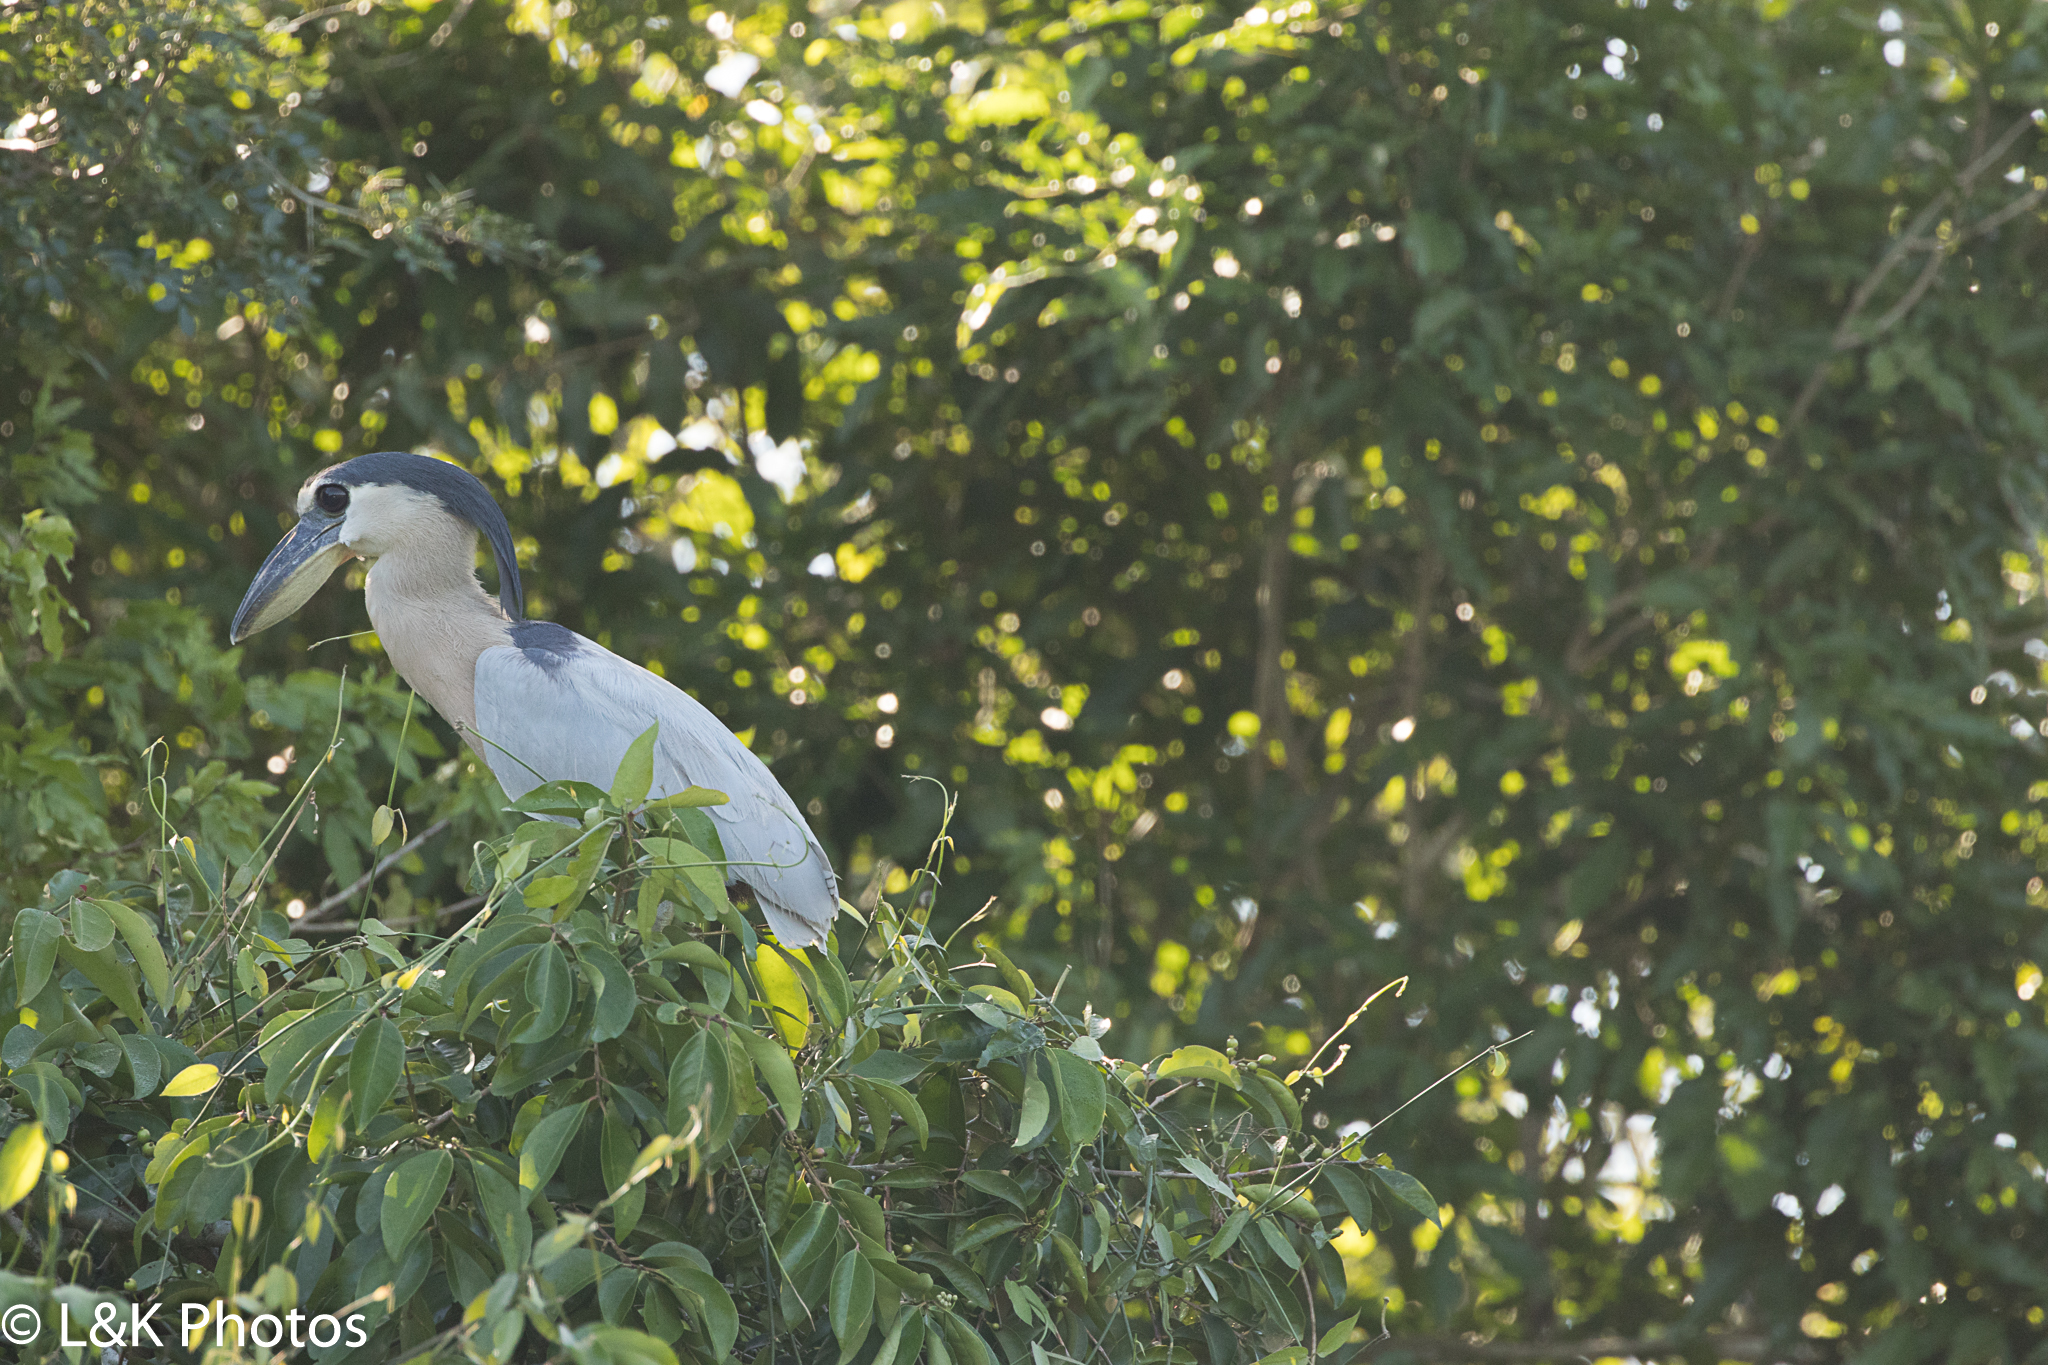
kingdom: Animalia
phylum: Chordata
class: Aves
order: Pelecaniformes
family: Ardeidae
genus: Cochlearius
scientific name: Cochlearius cochlearius
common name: Boat-billed heron
